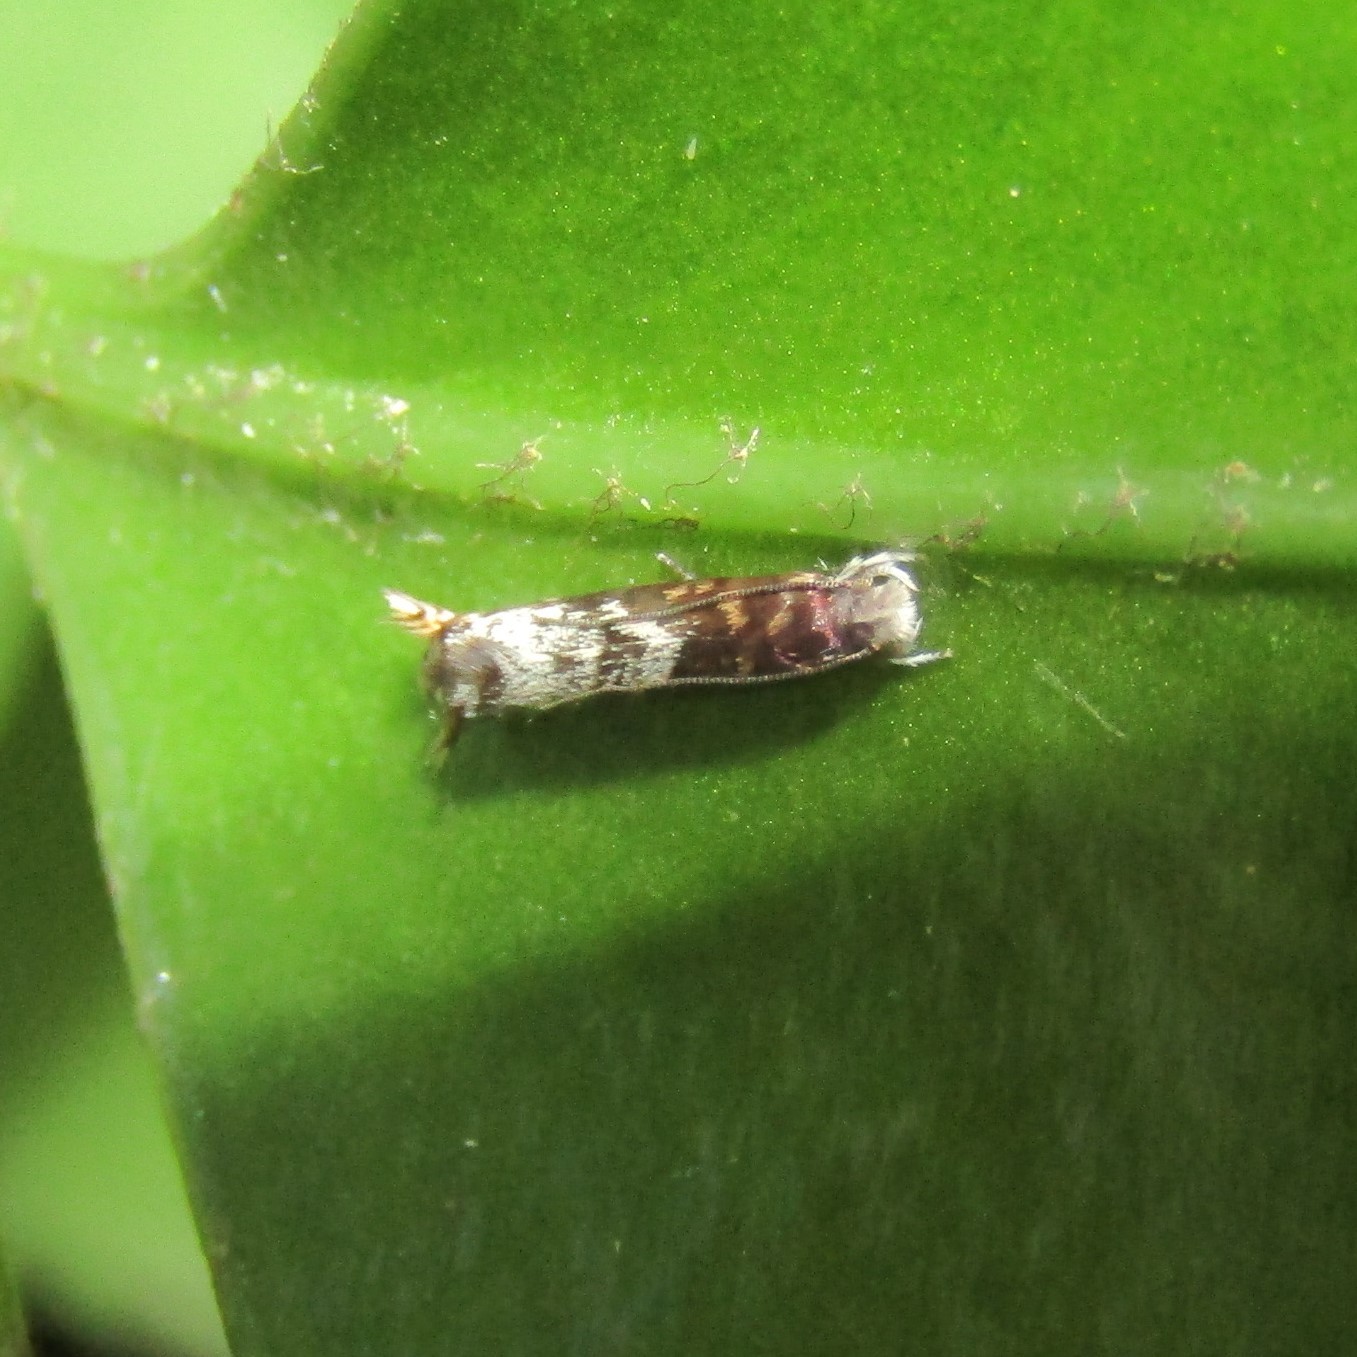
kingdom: Animalia
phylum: Arthropoda
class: Insecta
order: Lepidoptera
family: Tineidae
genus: Eugennaea
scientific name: Eugennaea laquearia
